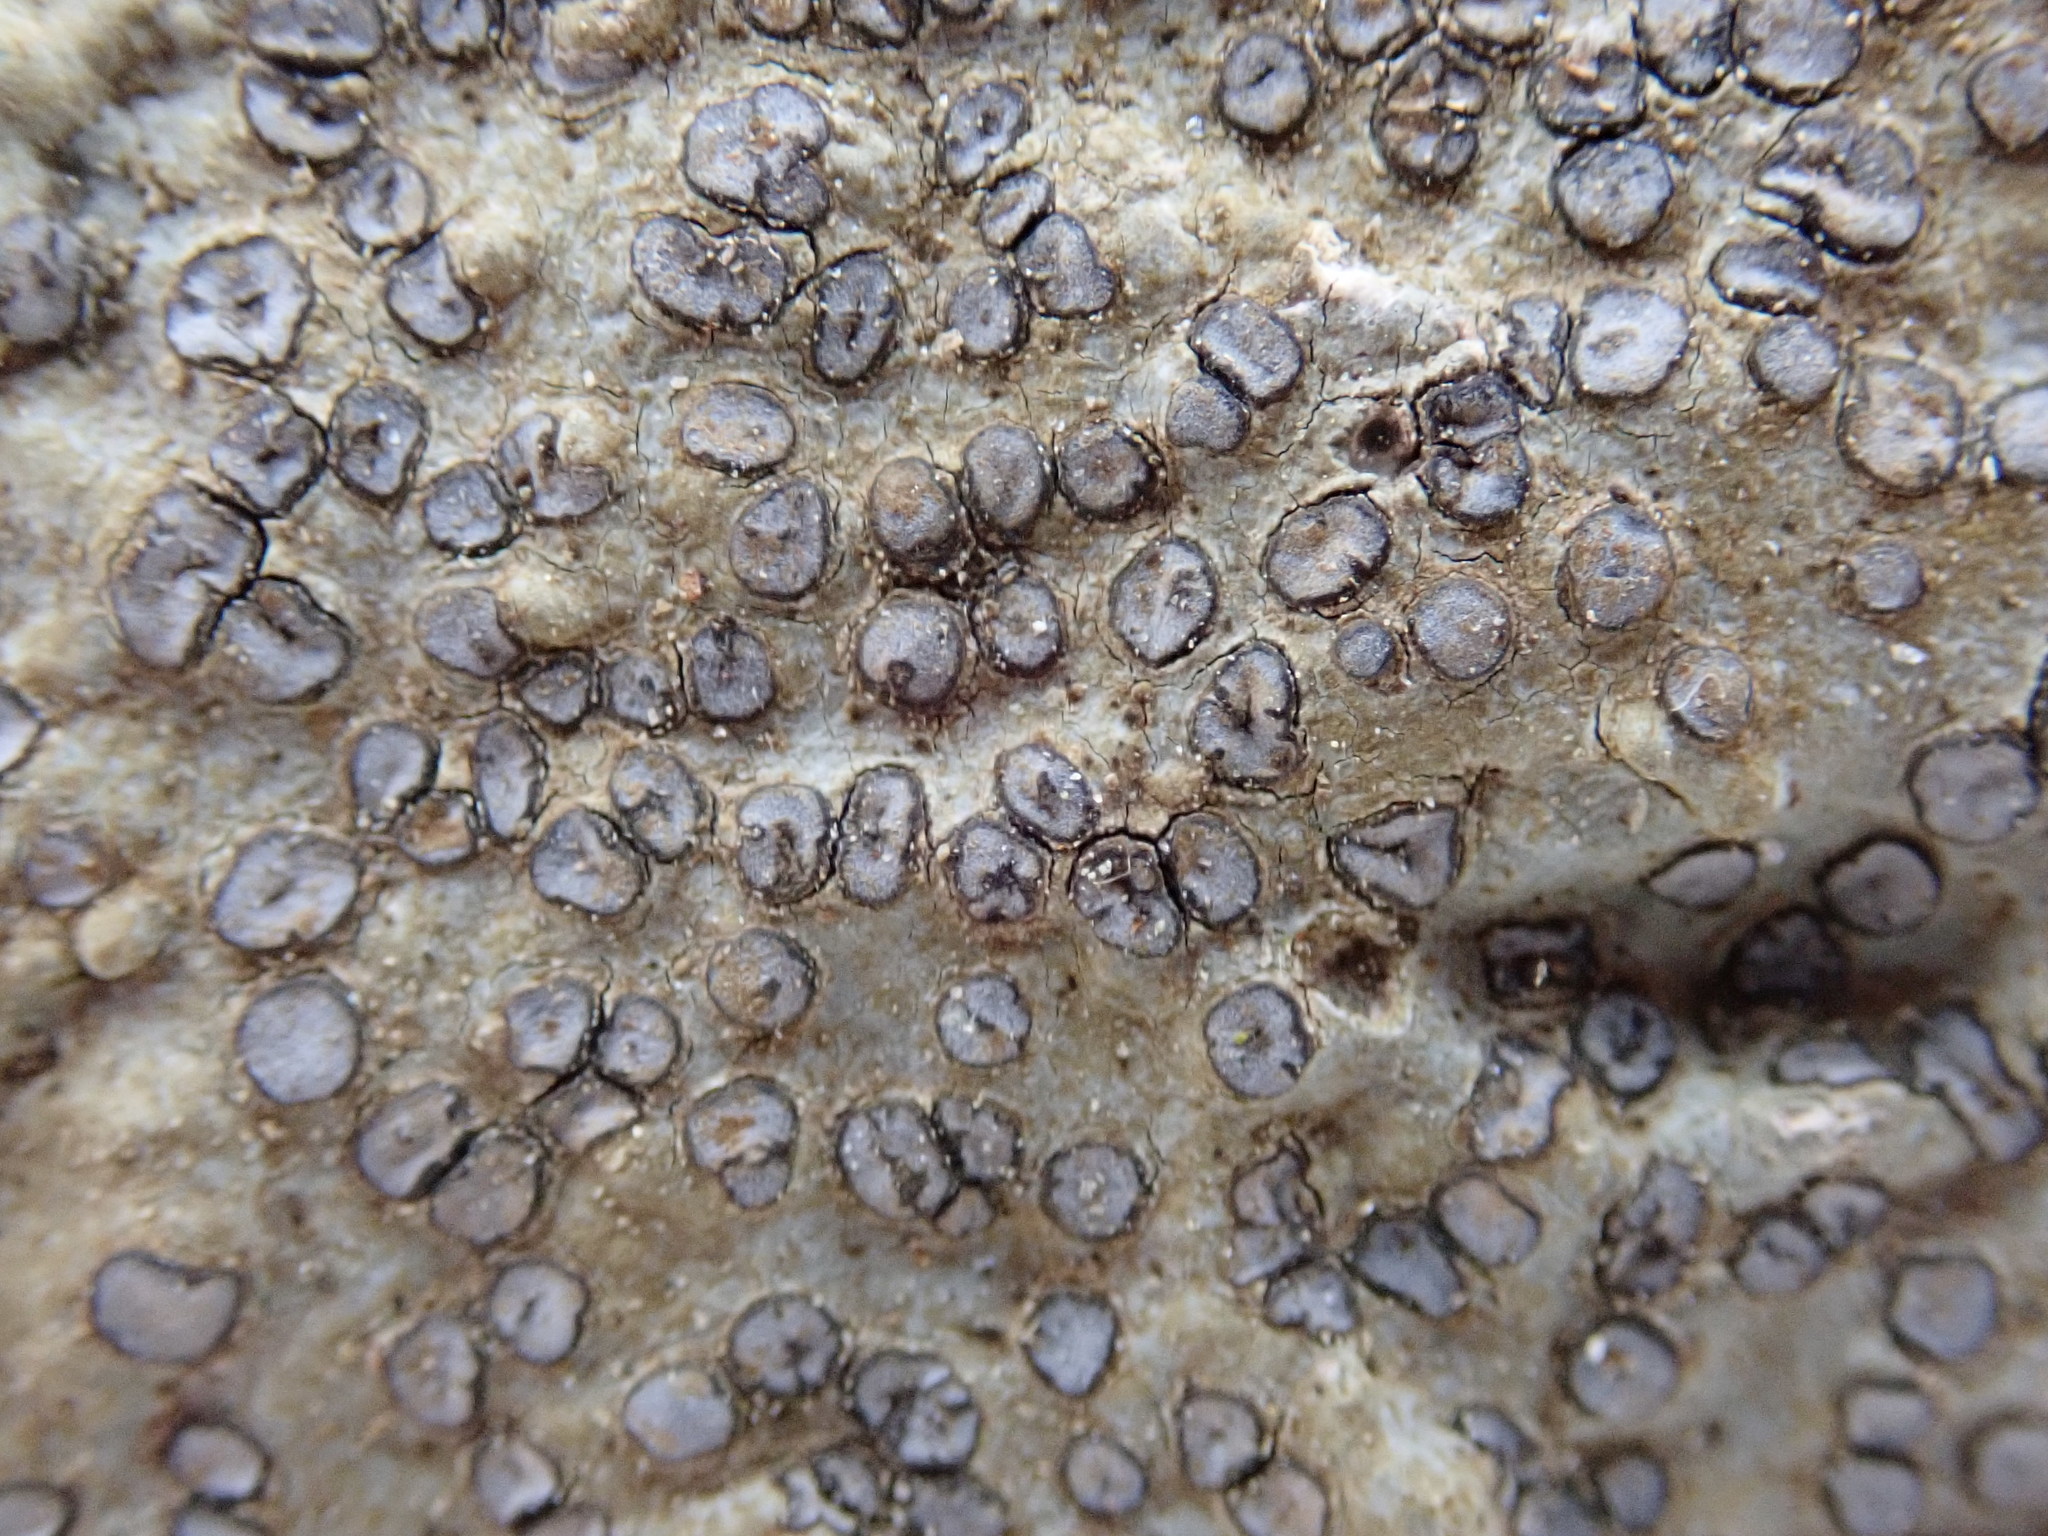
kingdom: Fungi
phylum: Ascomycota
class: Lecanoromycetes
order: Lecideales
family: Lecideaceae
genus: Porpidia
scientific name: Porpidia albocaerulescens
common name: Smokey-eyed boulder lichen
